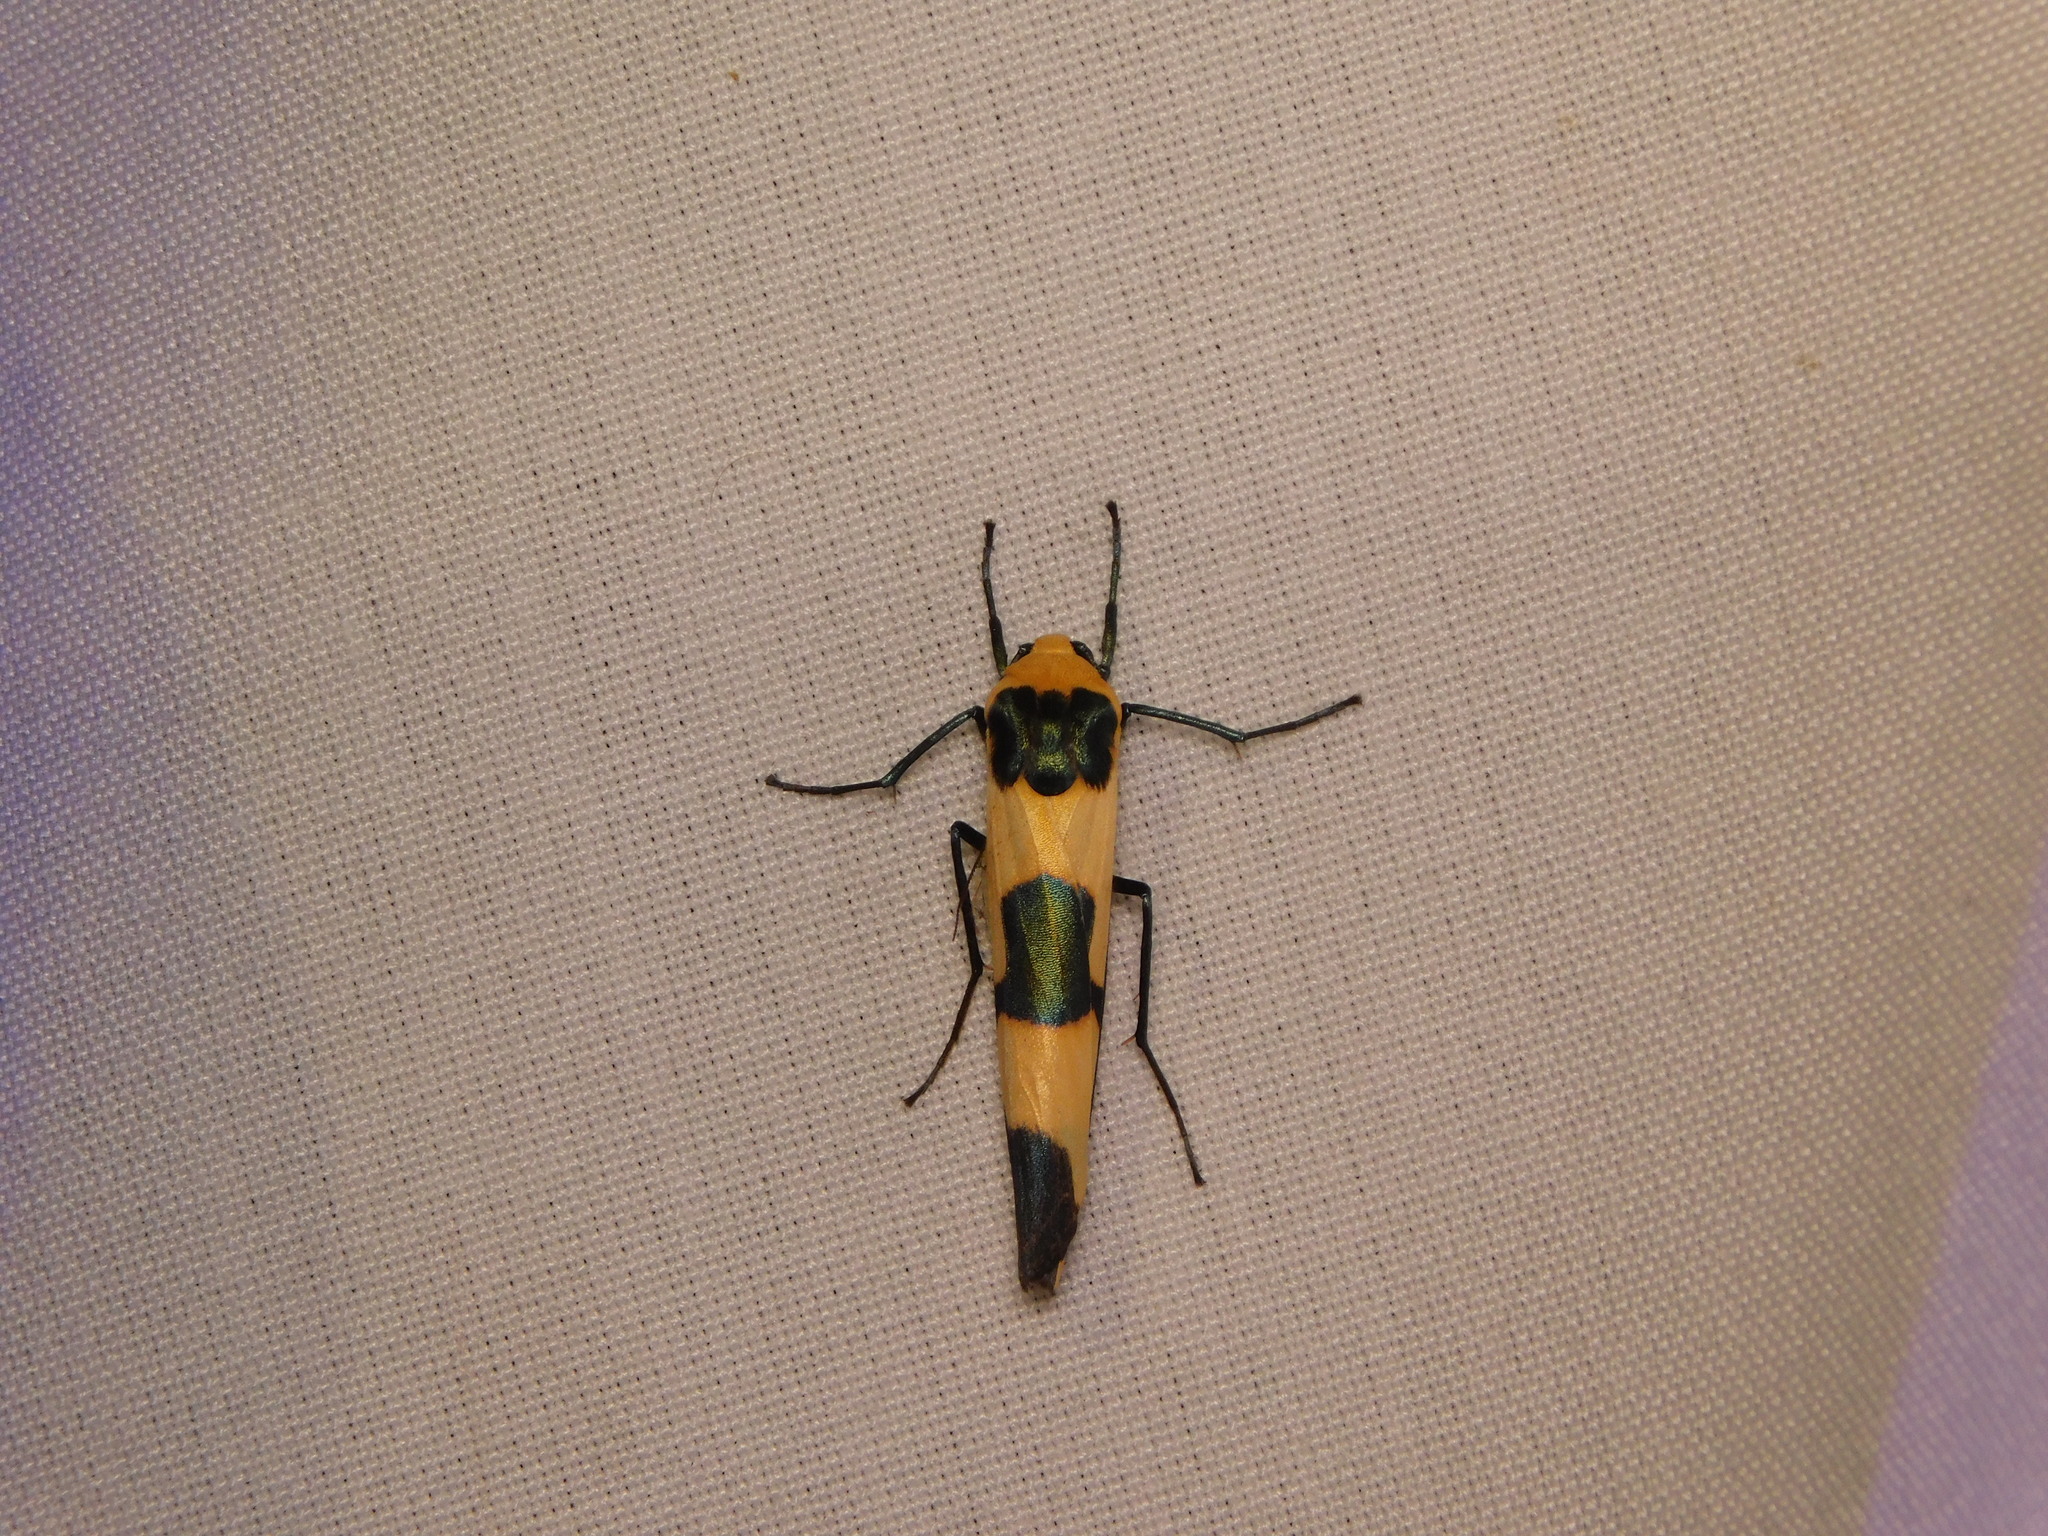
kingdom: Animalia
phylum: Arthropoda
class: Insecta
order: Lepidoptera
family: Erebidae
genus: Oeonistis
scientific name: Oeonistis entella
